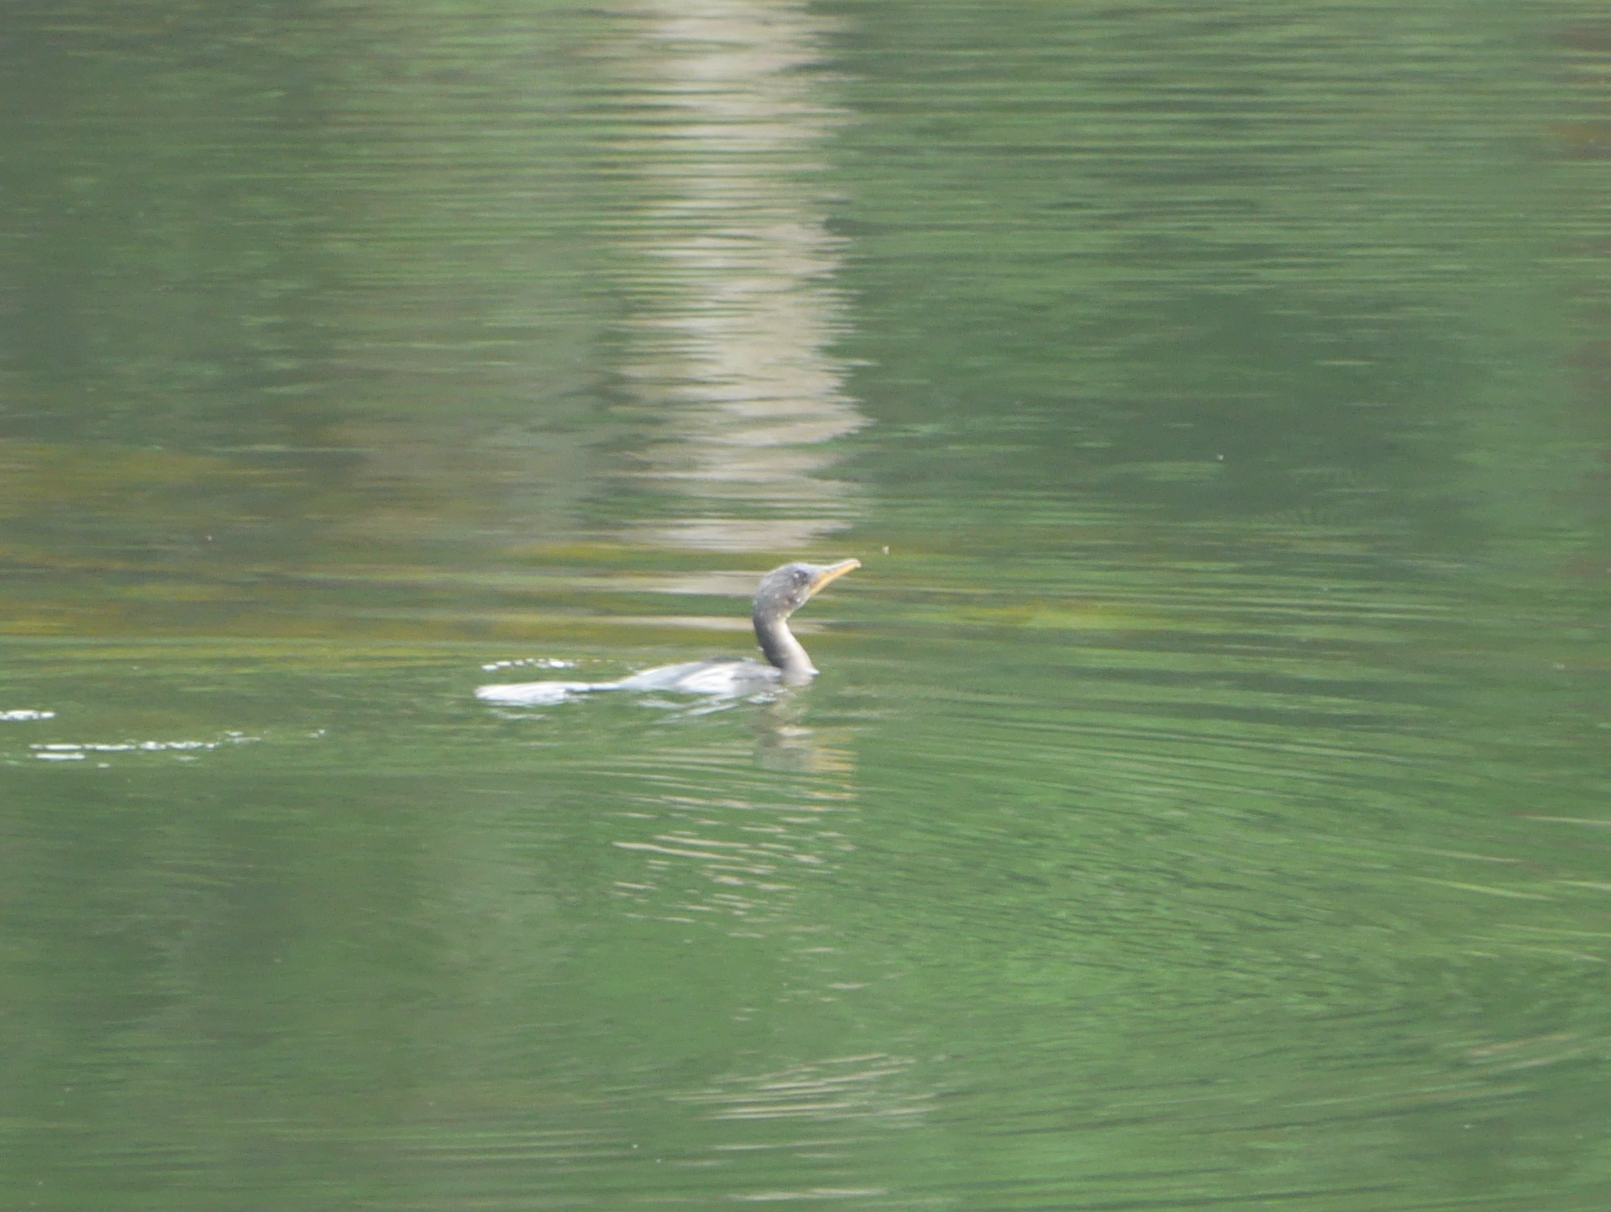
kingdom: Animalia
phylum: Chordata
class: Aves
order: Suliformes
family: Phalacrocoracidae
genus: Microcarbo
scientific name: Microcarbo africanus
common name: Long-tailed cormorant
